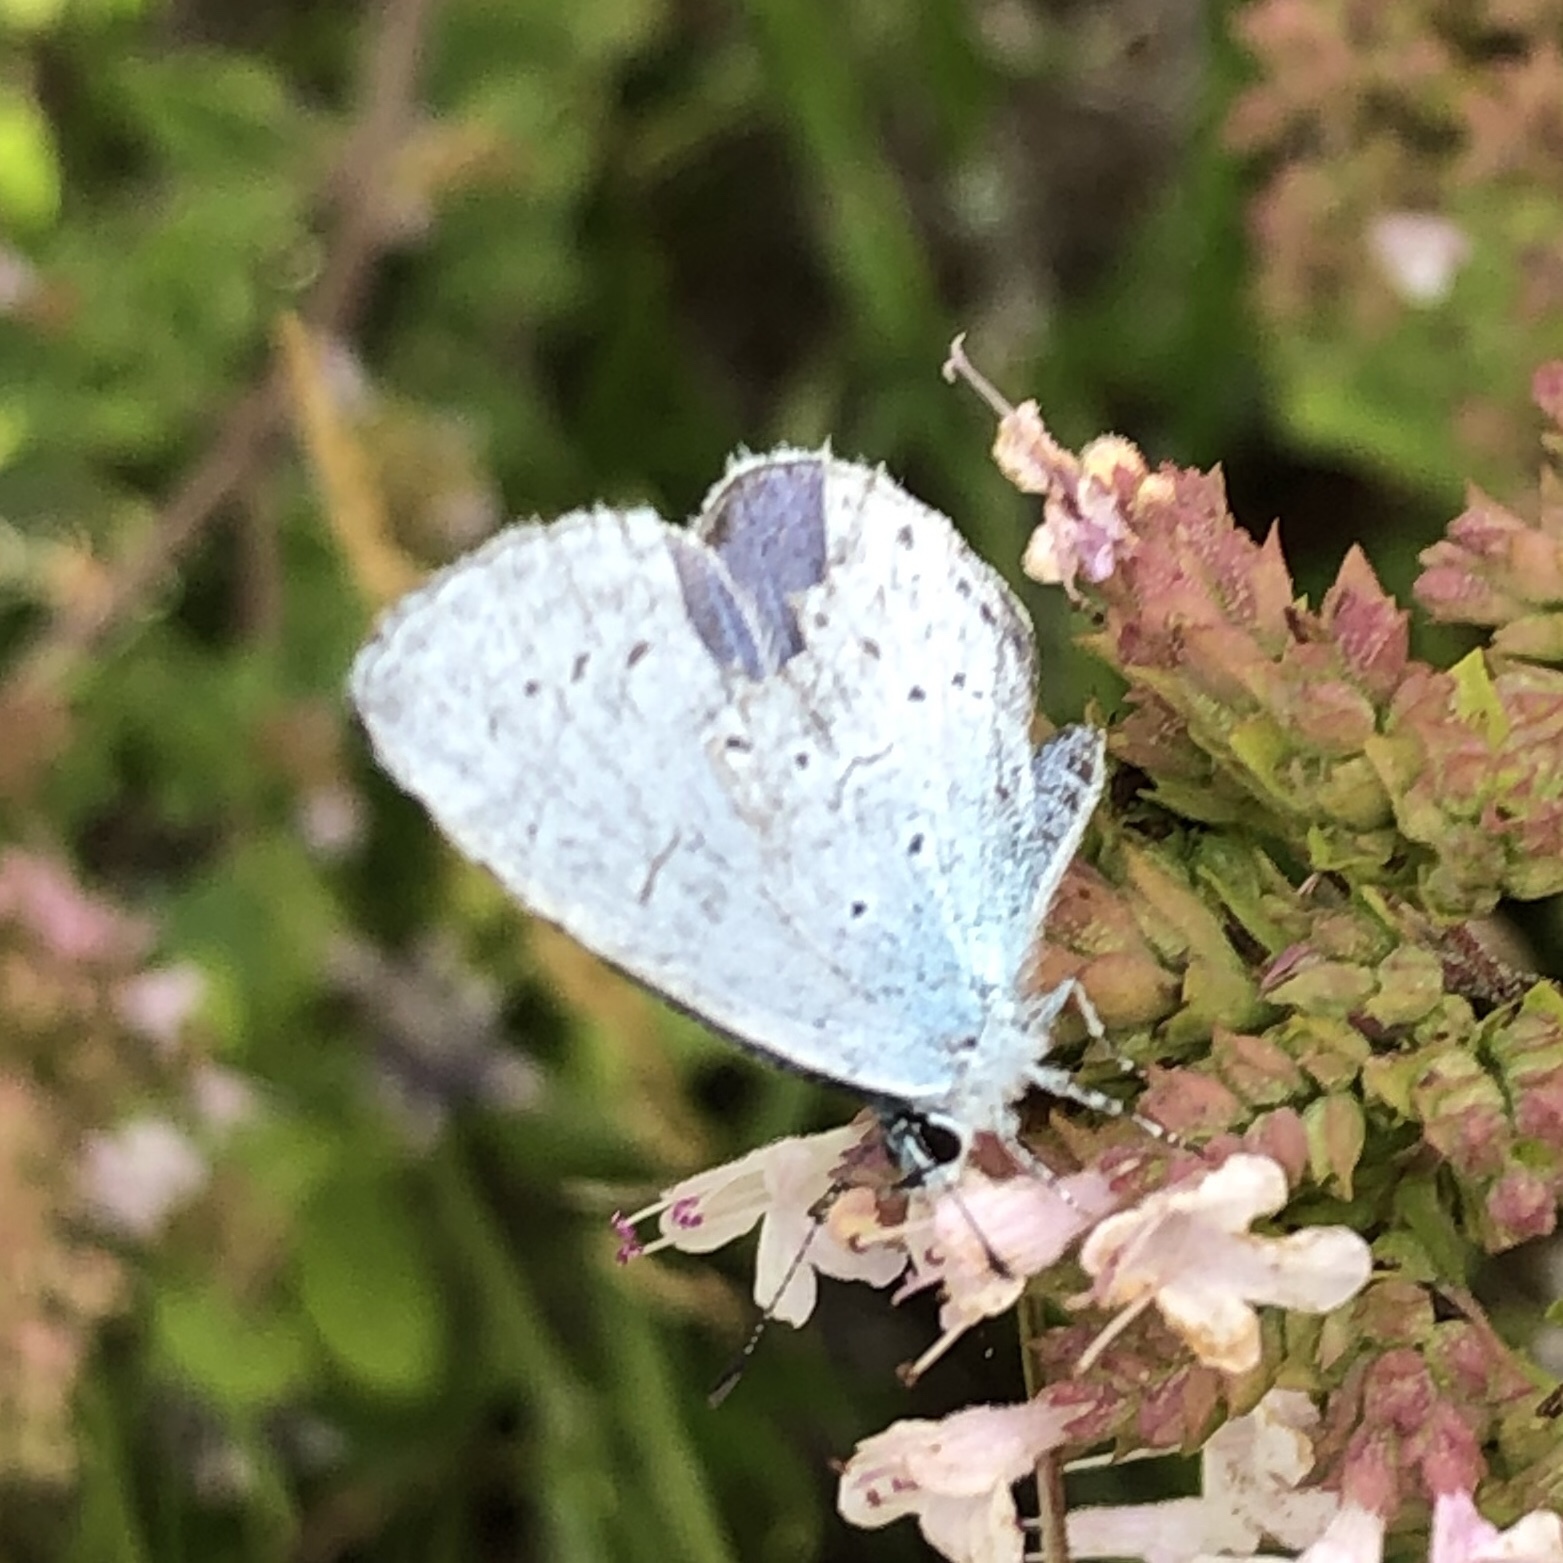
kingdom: Animalia
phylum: Arthropoda
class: Insecta
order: Lepidoptera
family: Lycaenidae
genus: Celastrina
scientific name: Celastrina argiolus
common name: Holly blue
